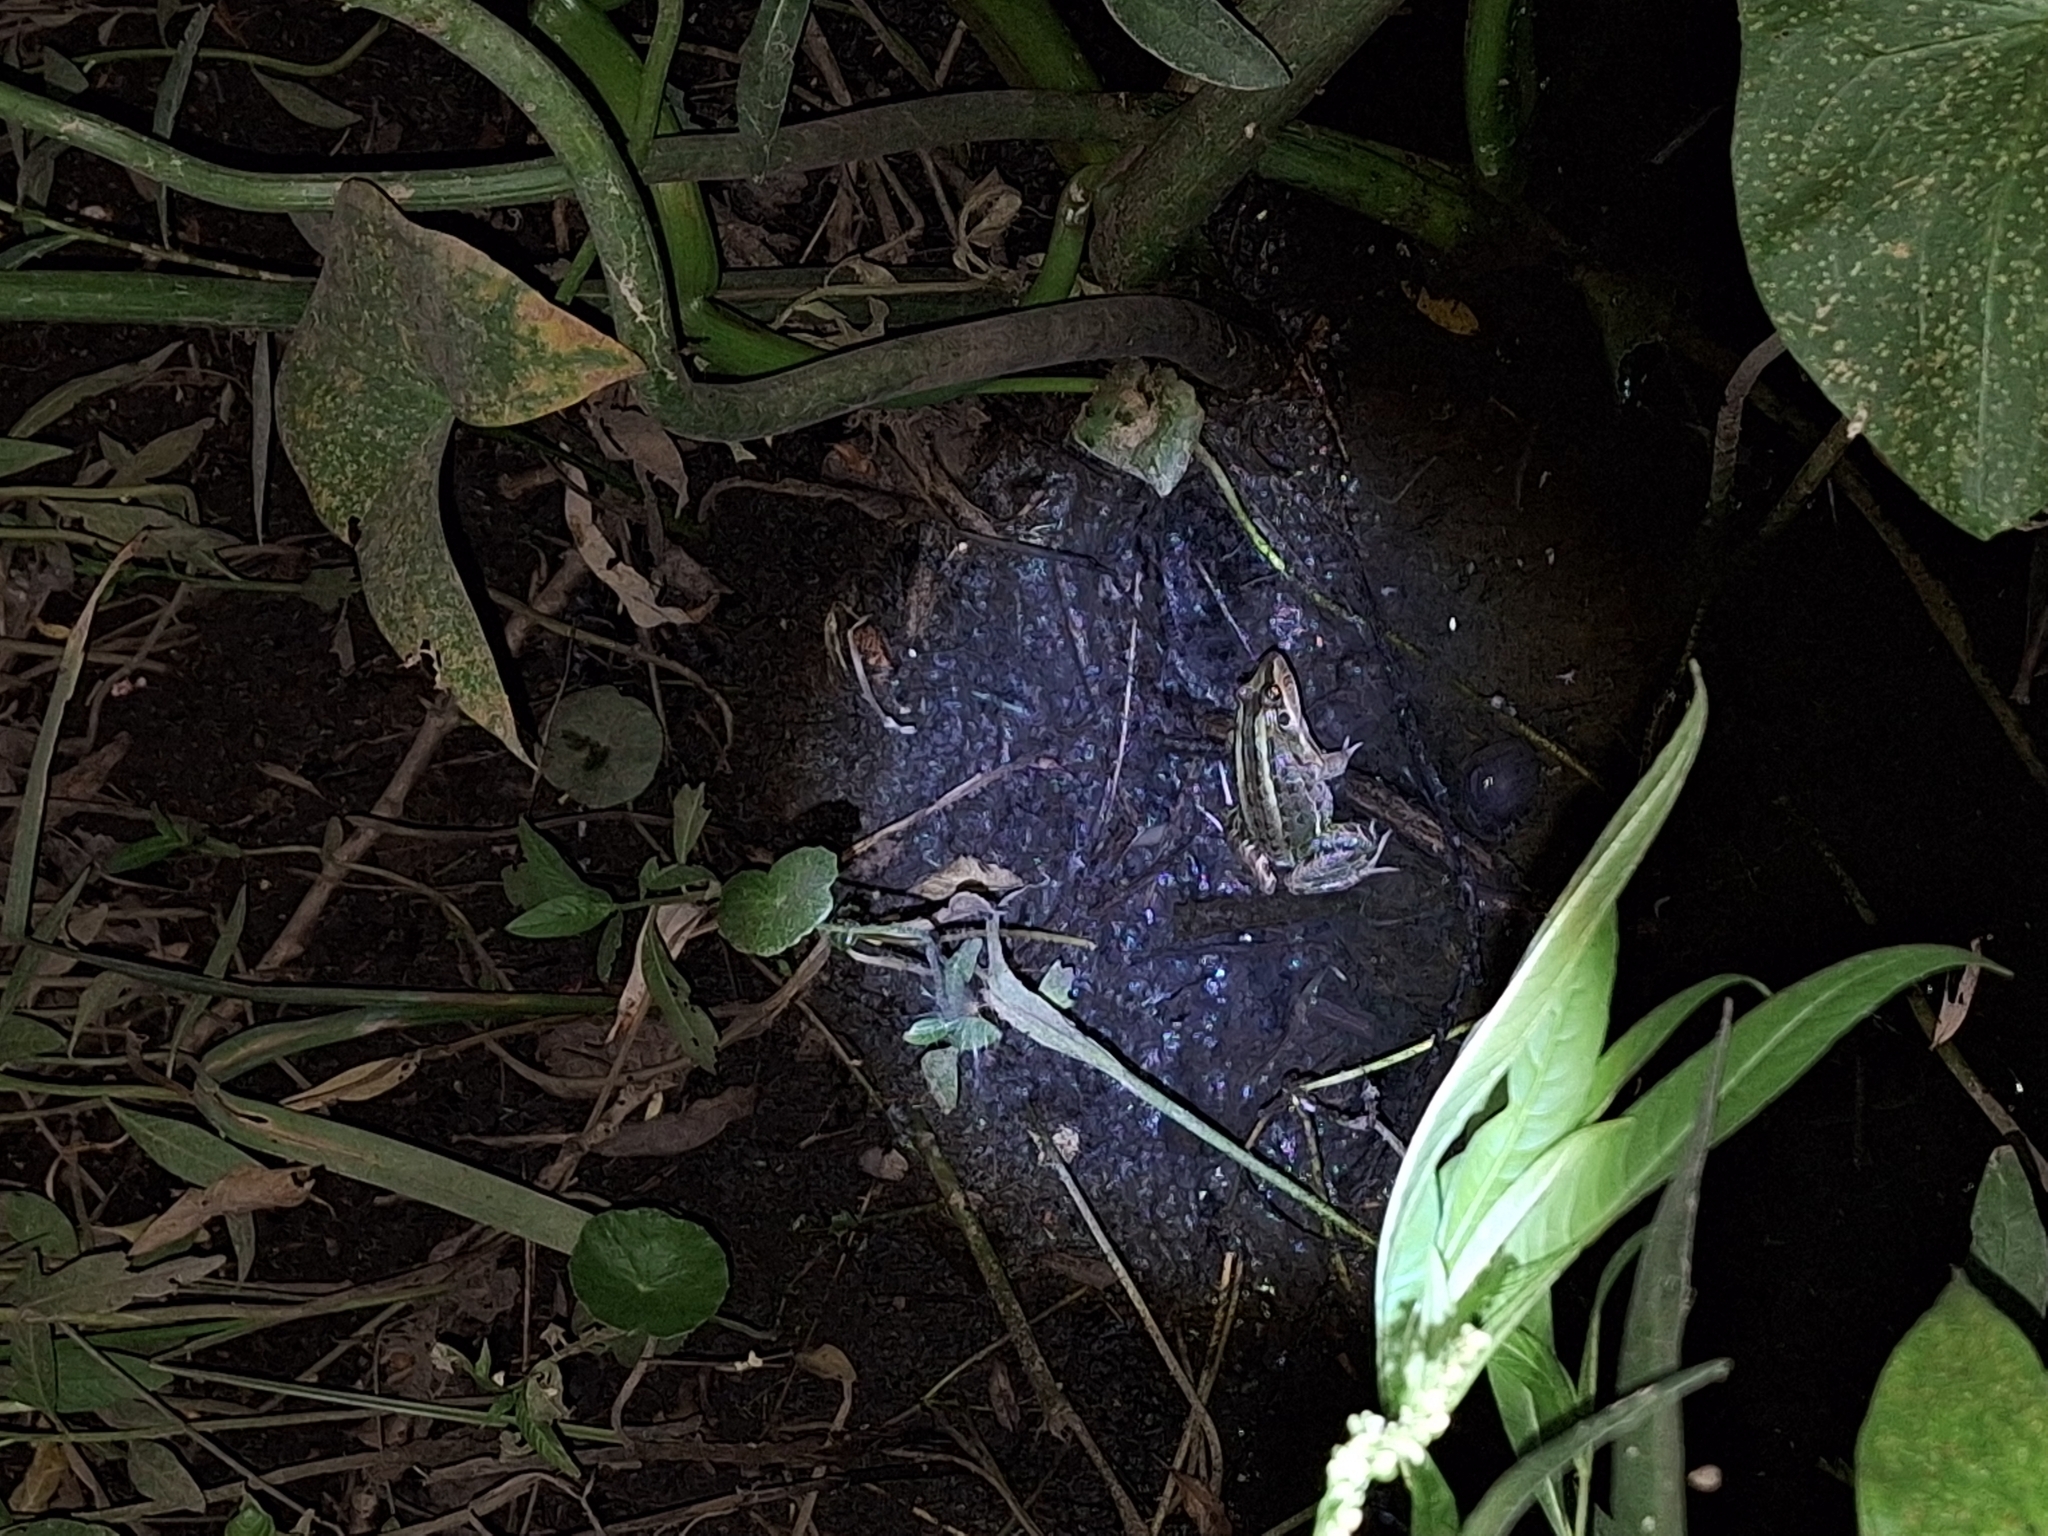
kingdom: Animalia
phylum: Chordata
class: Amphibia
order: Anura
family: Leptodactylidae
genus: Leptodactylus
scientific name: Leptodactylus luctator
